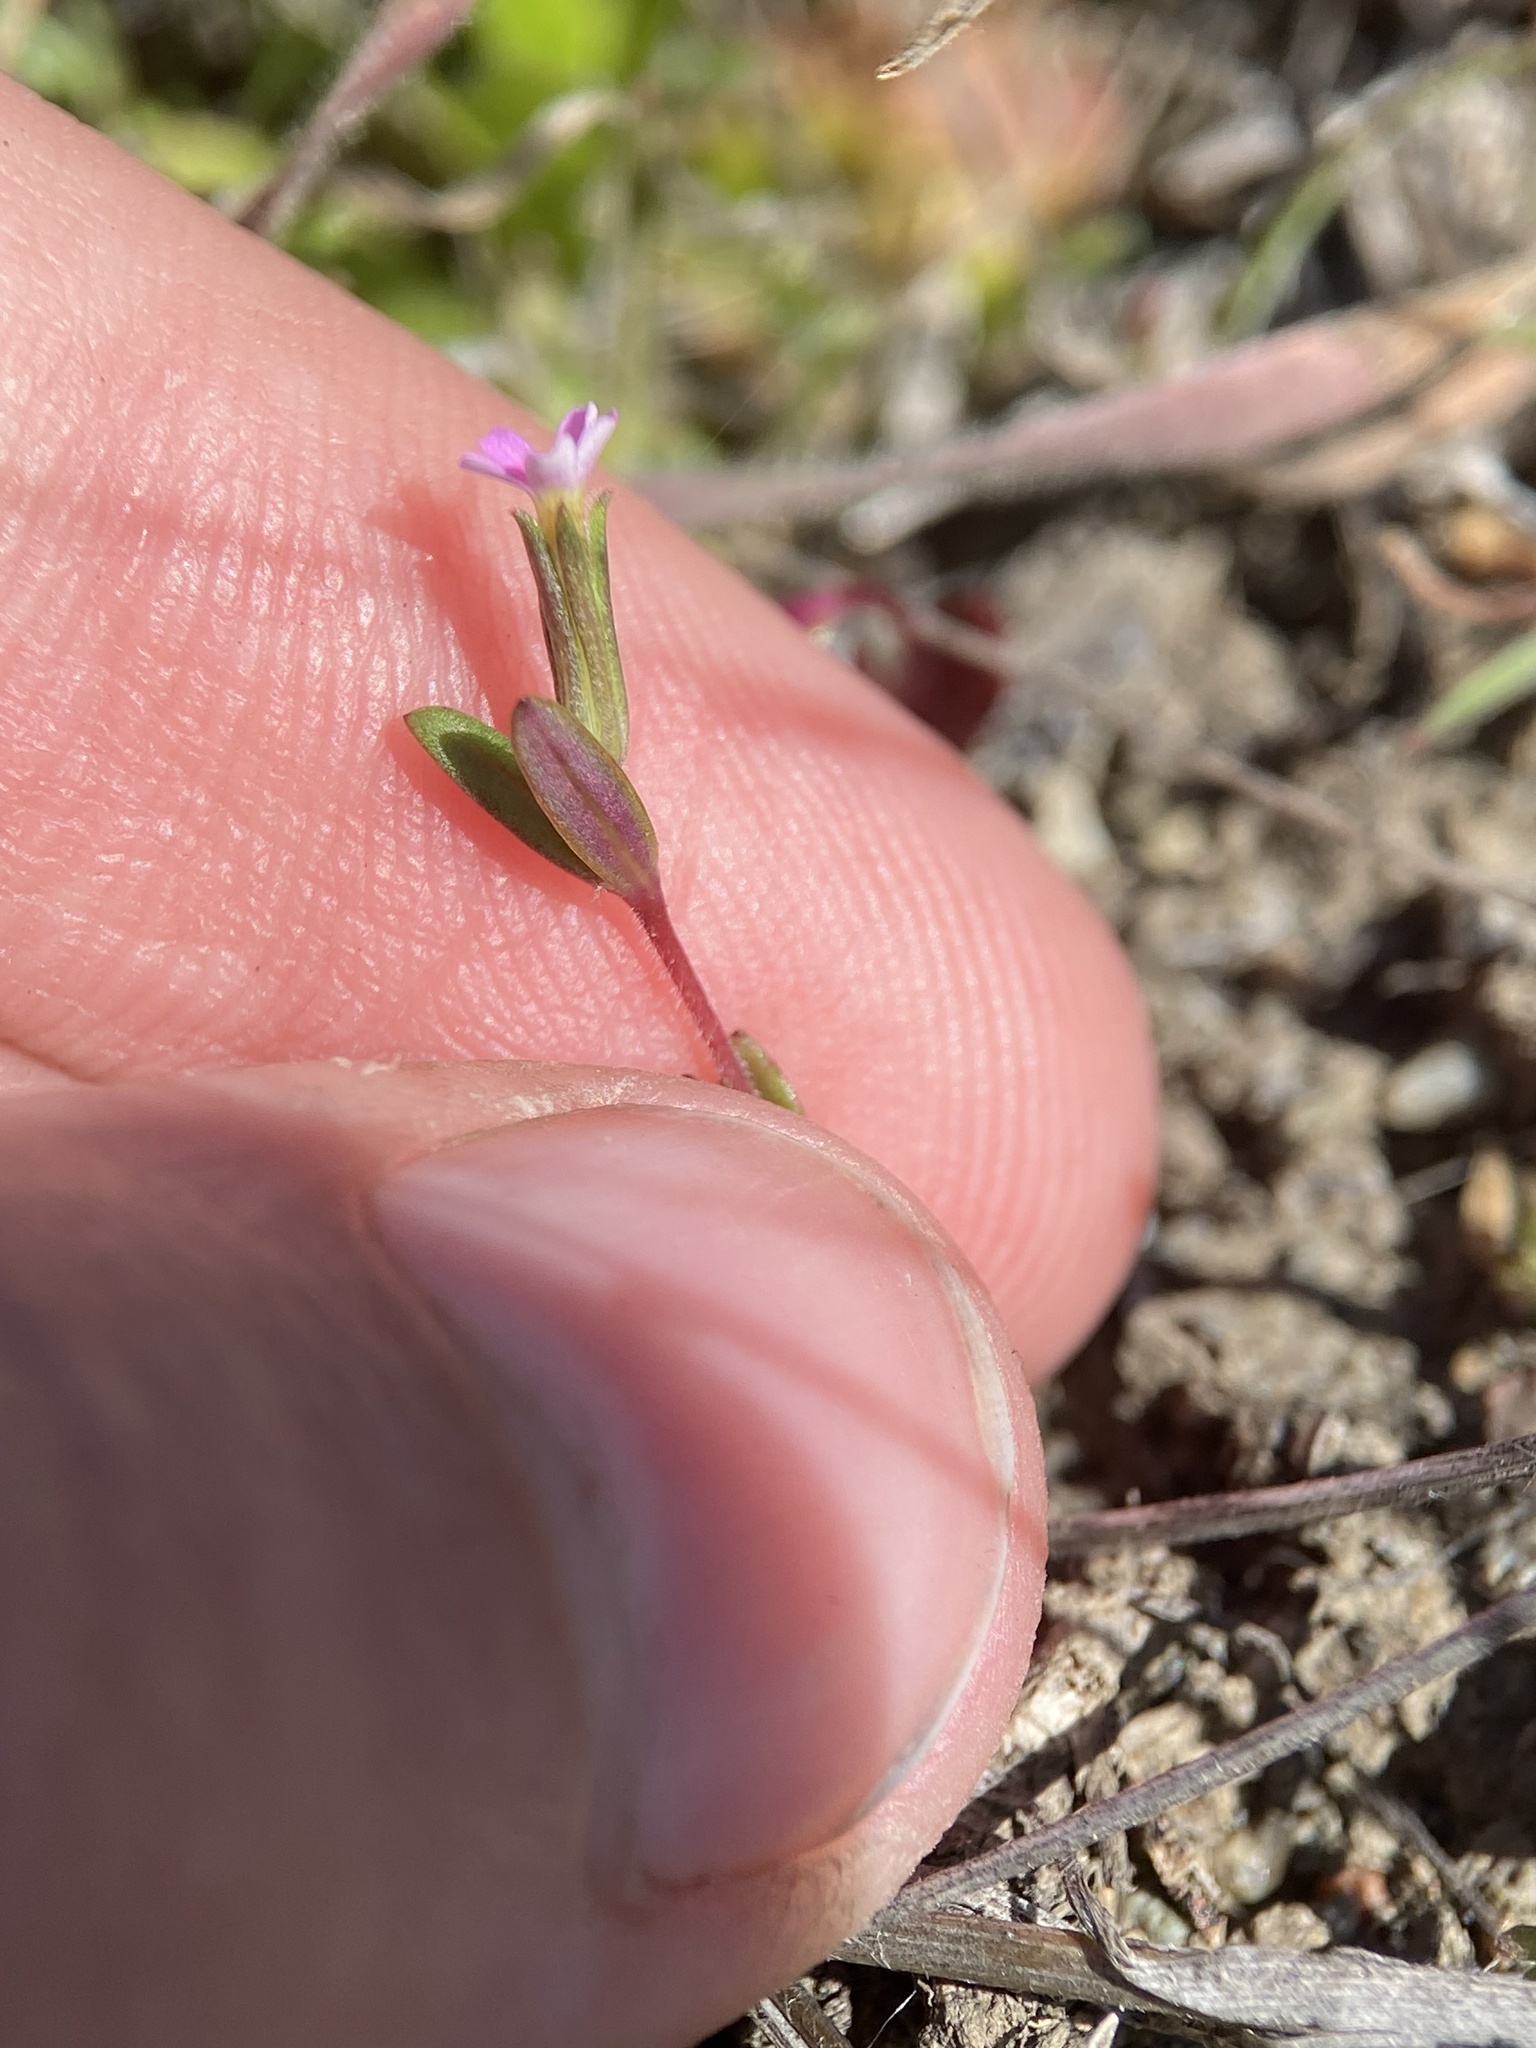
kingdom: Plantae
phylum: Tracheophyta
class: Magnoliopsida
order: Ericales
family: Polemoniaceae
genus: Phlox
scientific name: Phlox gracilis
